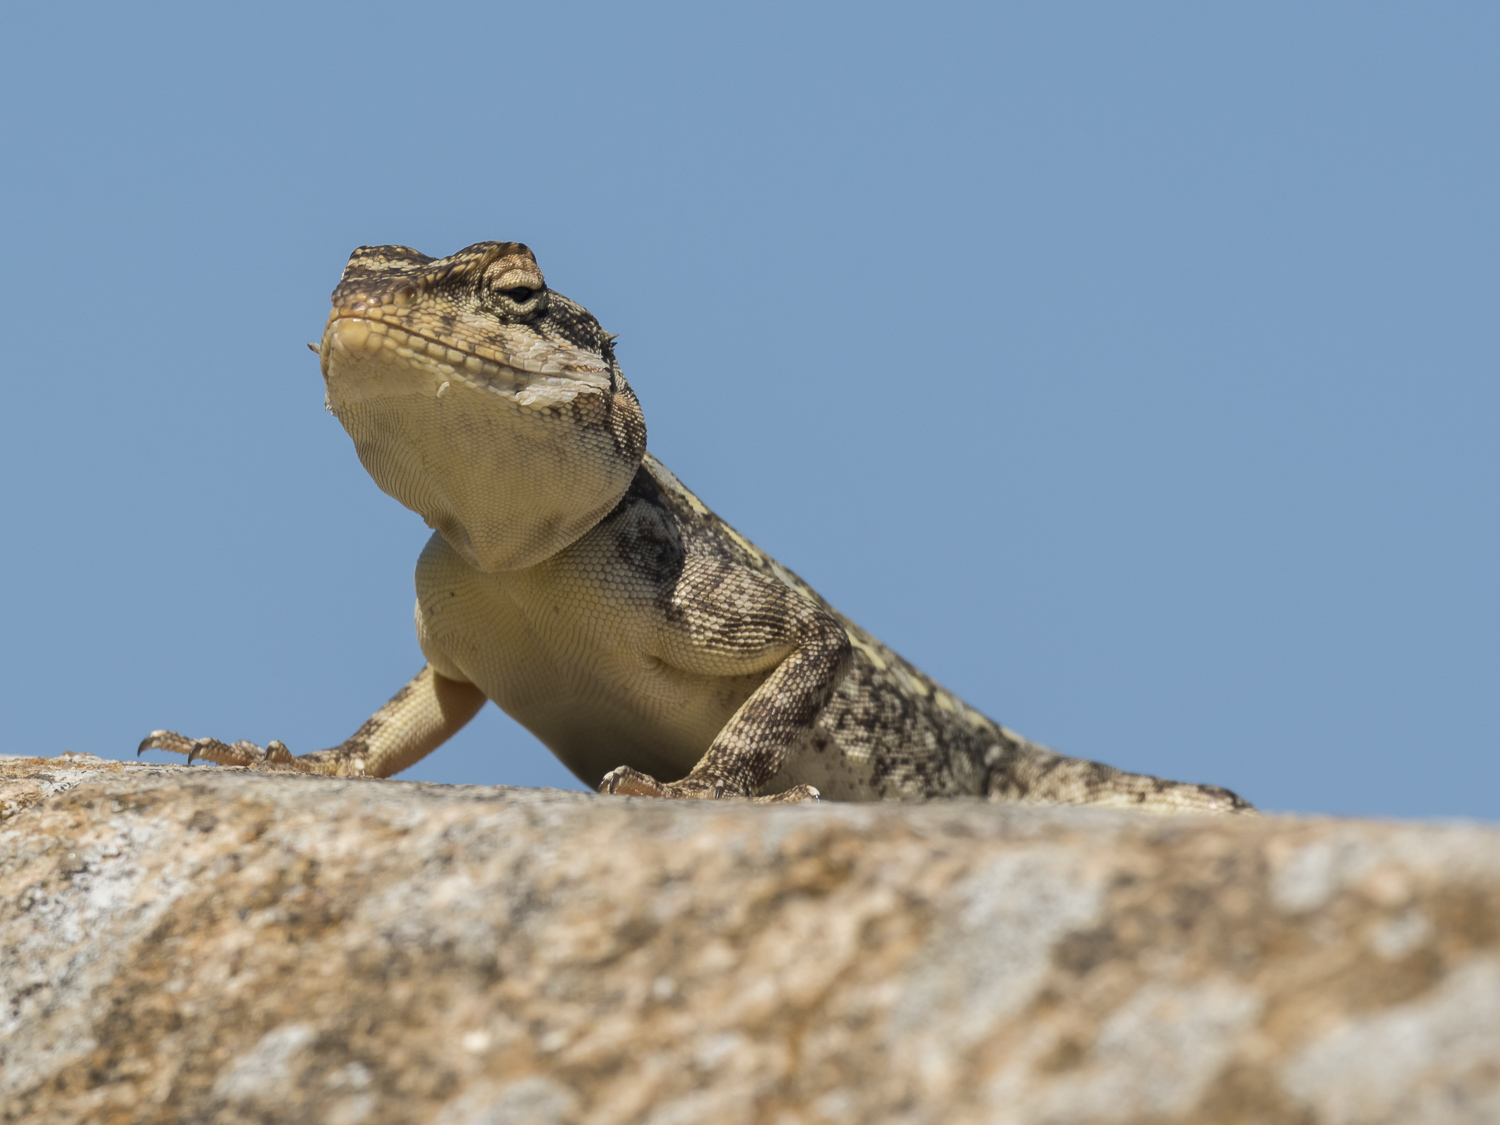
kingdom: Animalia
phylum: Chordata
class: Squamata
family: Agamidae
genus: Psammophilus
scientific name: Psammophilus dorsalis
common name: South indian rock agama
